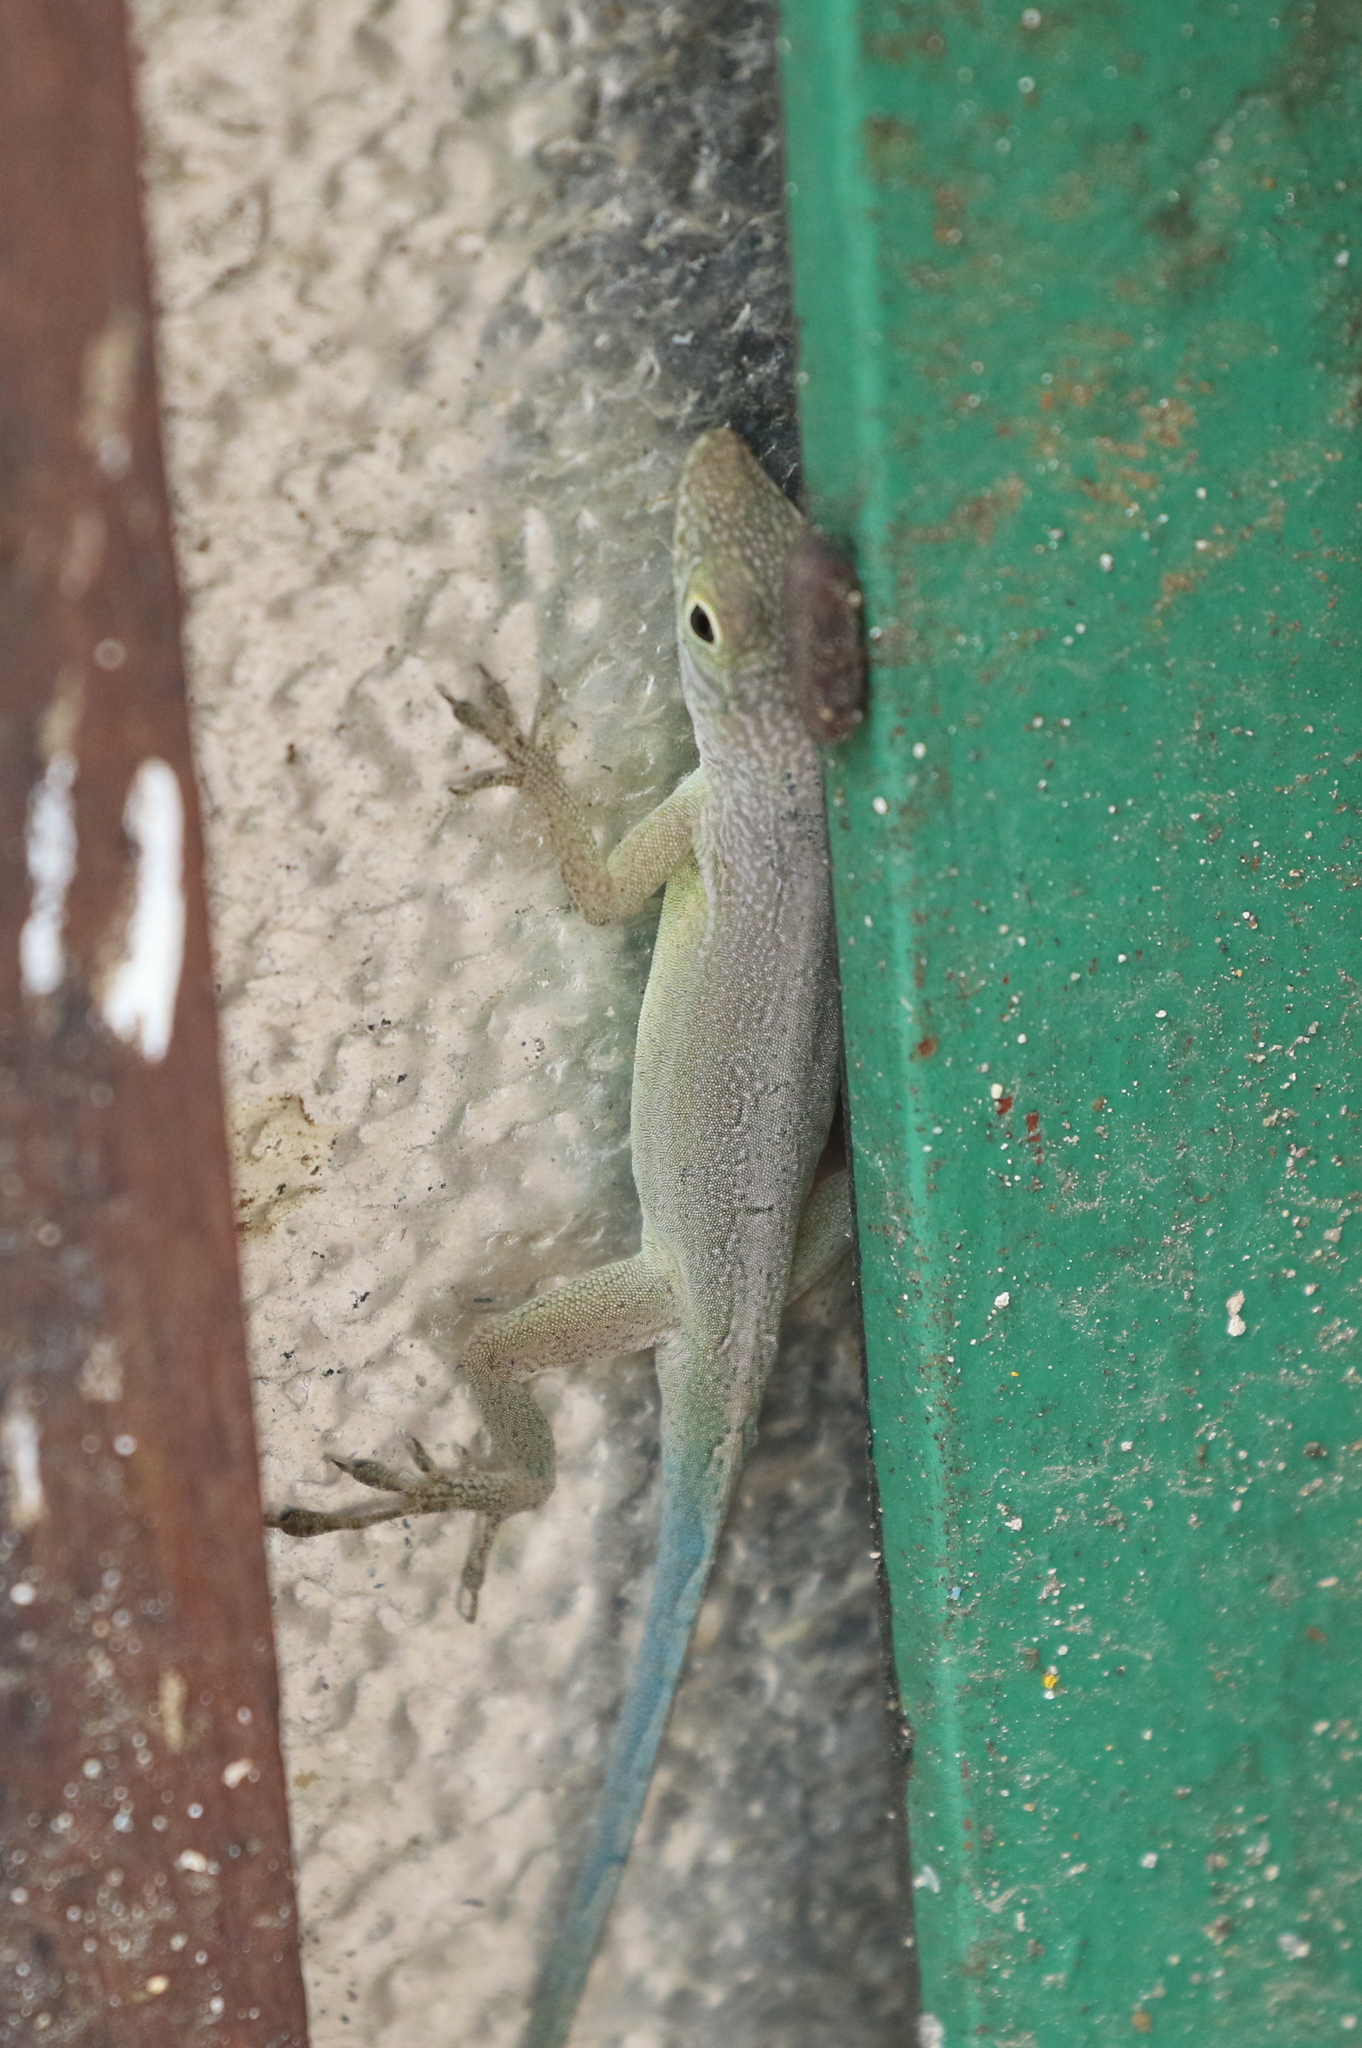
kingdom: Animalia
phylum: Chordata
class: Squamata
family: Dactyloidae
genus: Anolis
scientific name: Anolis grahami
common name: Graham's anole
